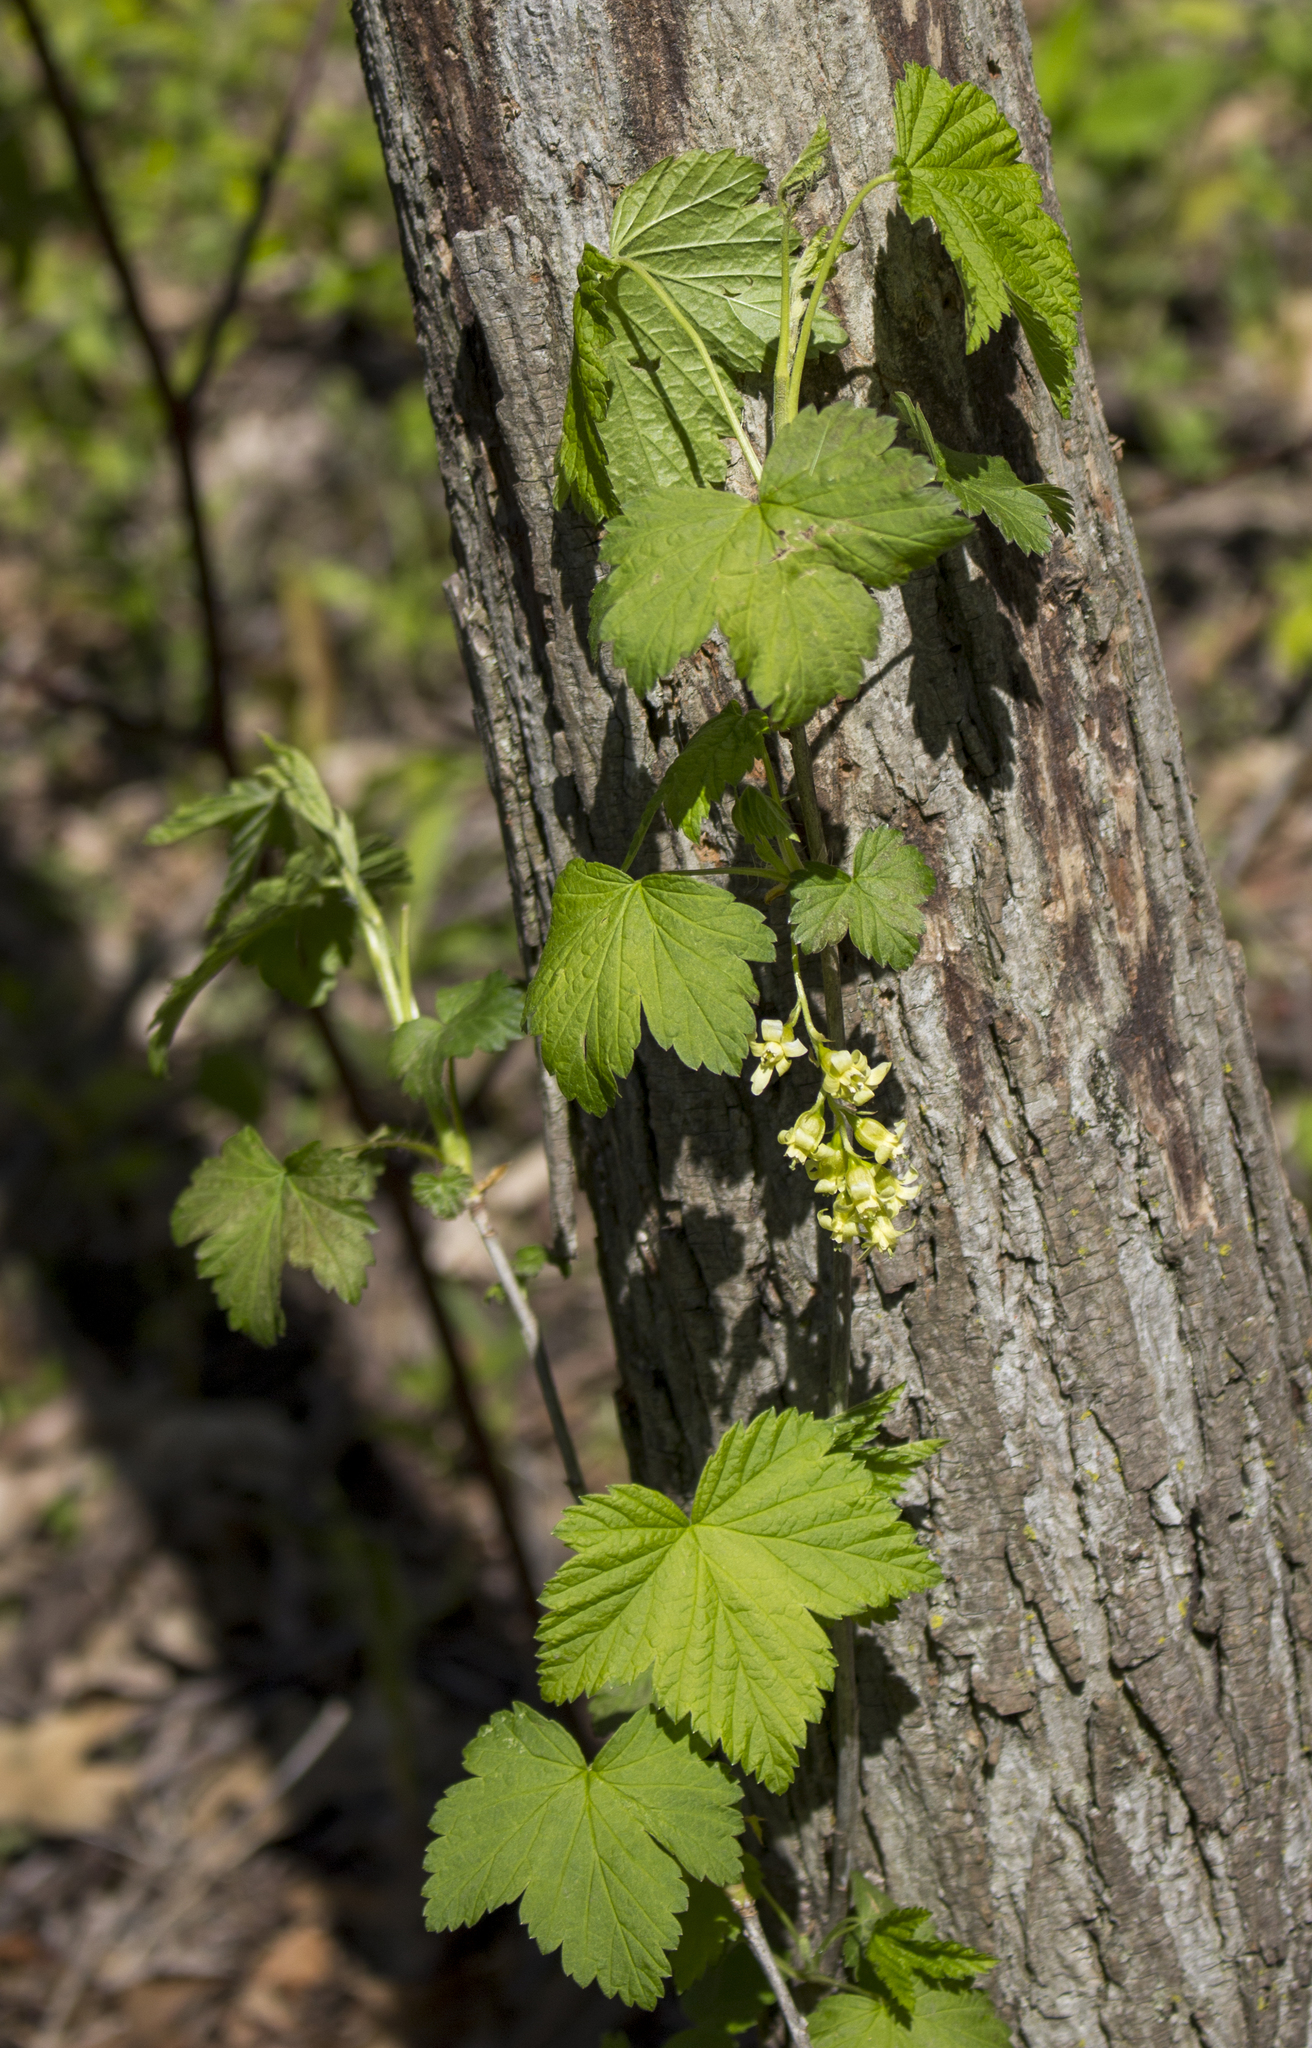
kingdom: Plantae
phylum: Tracheophyta
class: Magnoliopsida
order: Saxifragales
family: Grossulariaceae
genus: Ribes
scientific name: Ribes americanum
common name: American black currant
